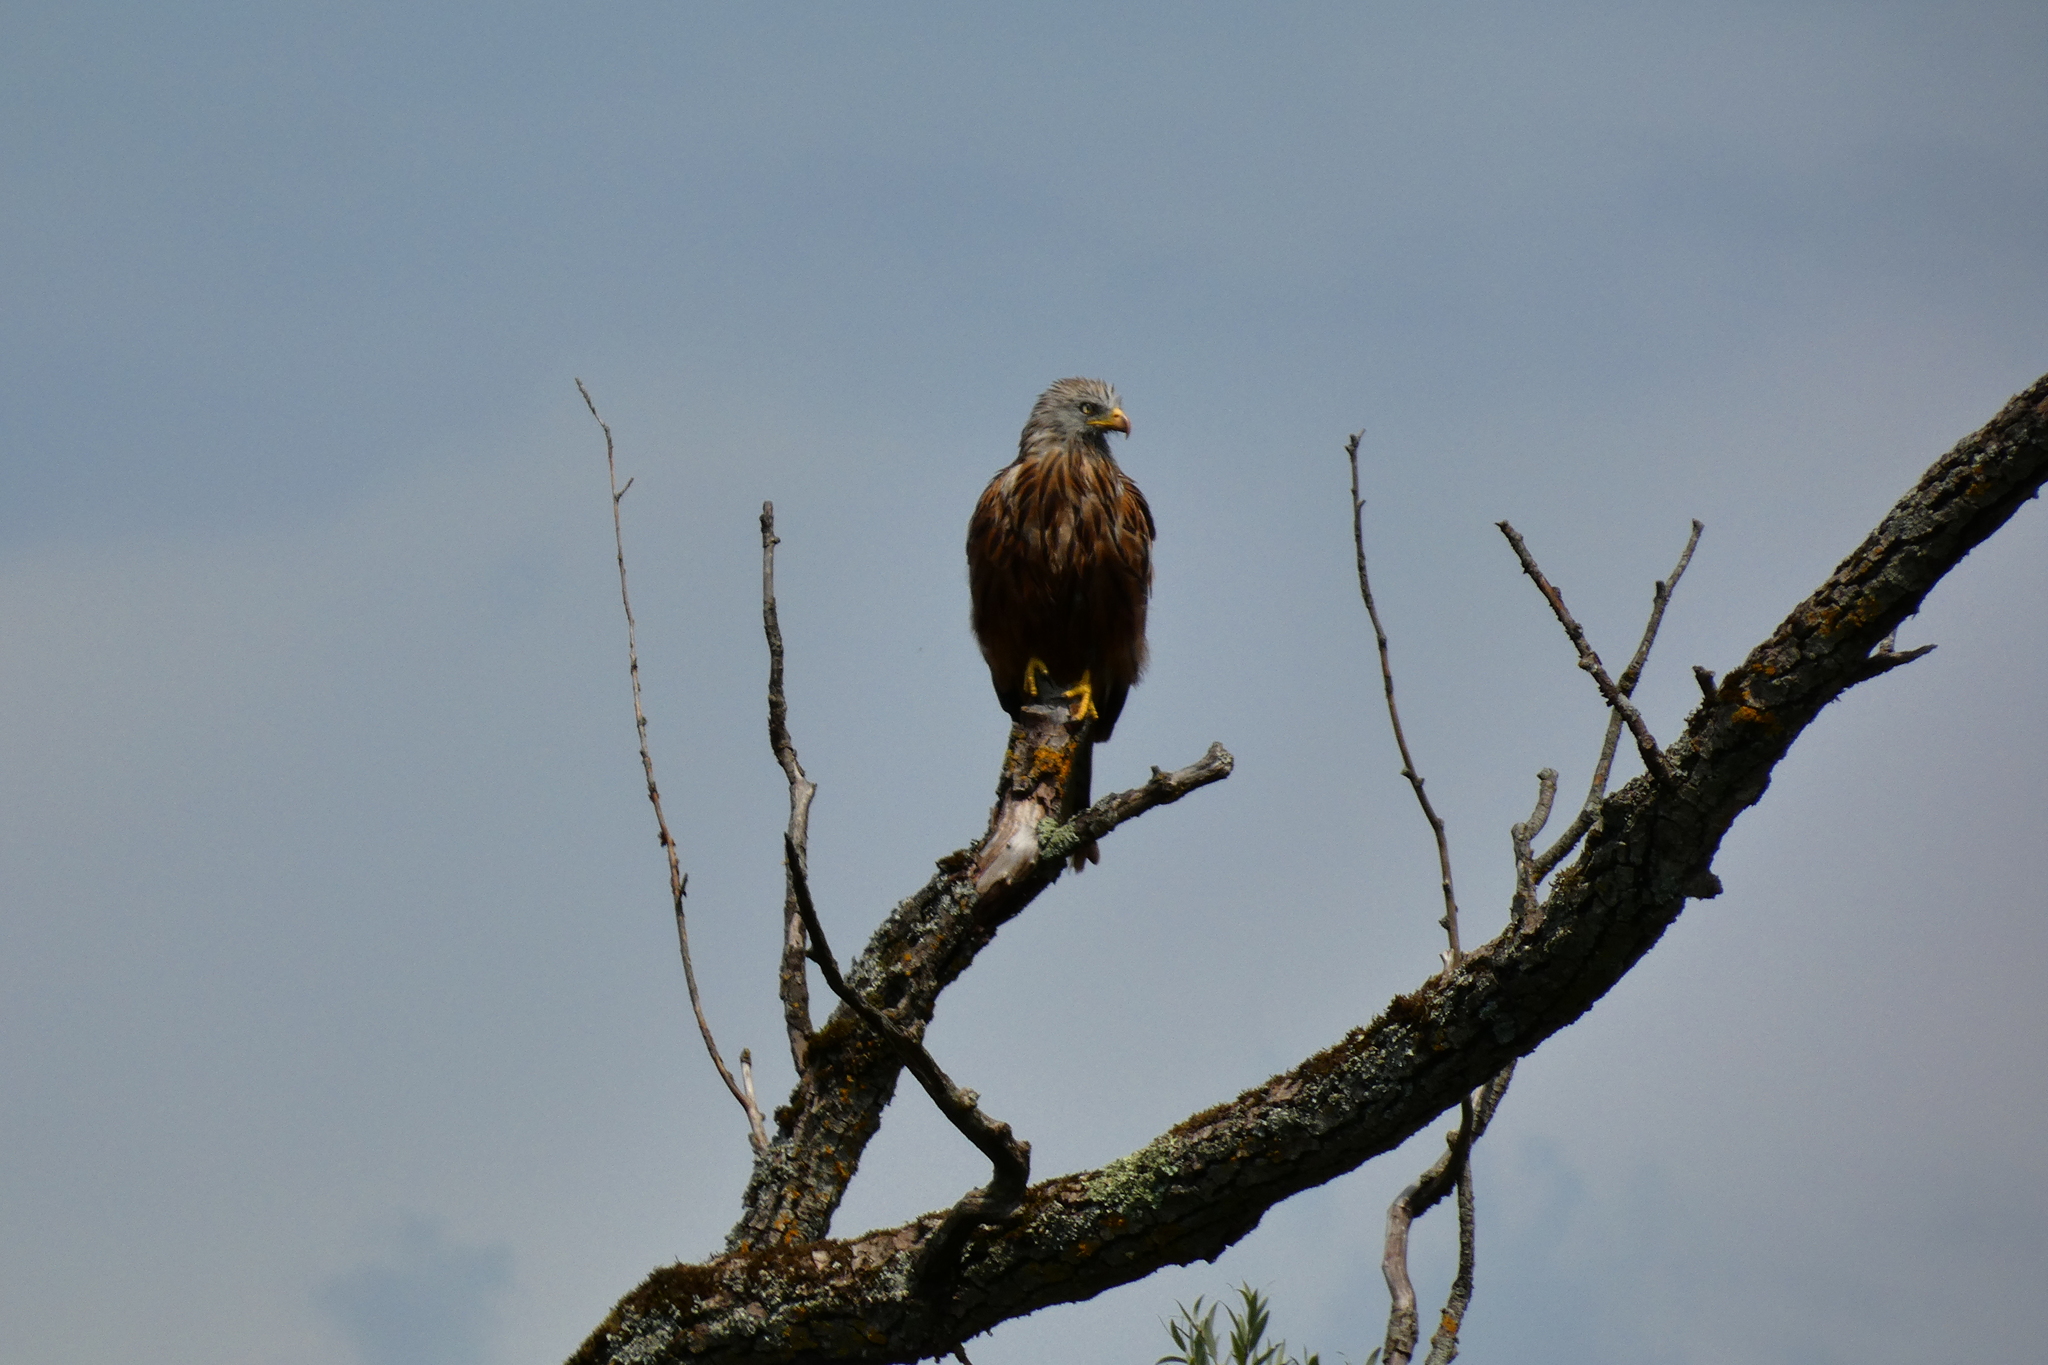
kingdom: Animalia
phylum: Chordata
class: Aves
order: Accipitriformes
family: Accipitridae
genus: Milvus
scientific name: Milvus milvus
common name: Red kite
